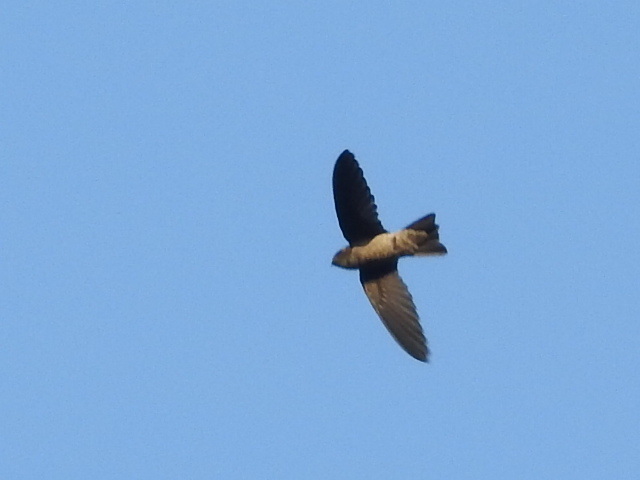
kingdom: Animalia
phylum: Chordata
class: Aves
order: Apodiformes
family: Apodidae
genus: Aerodramus
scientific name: Aerodramus
